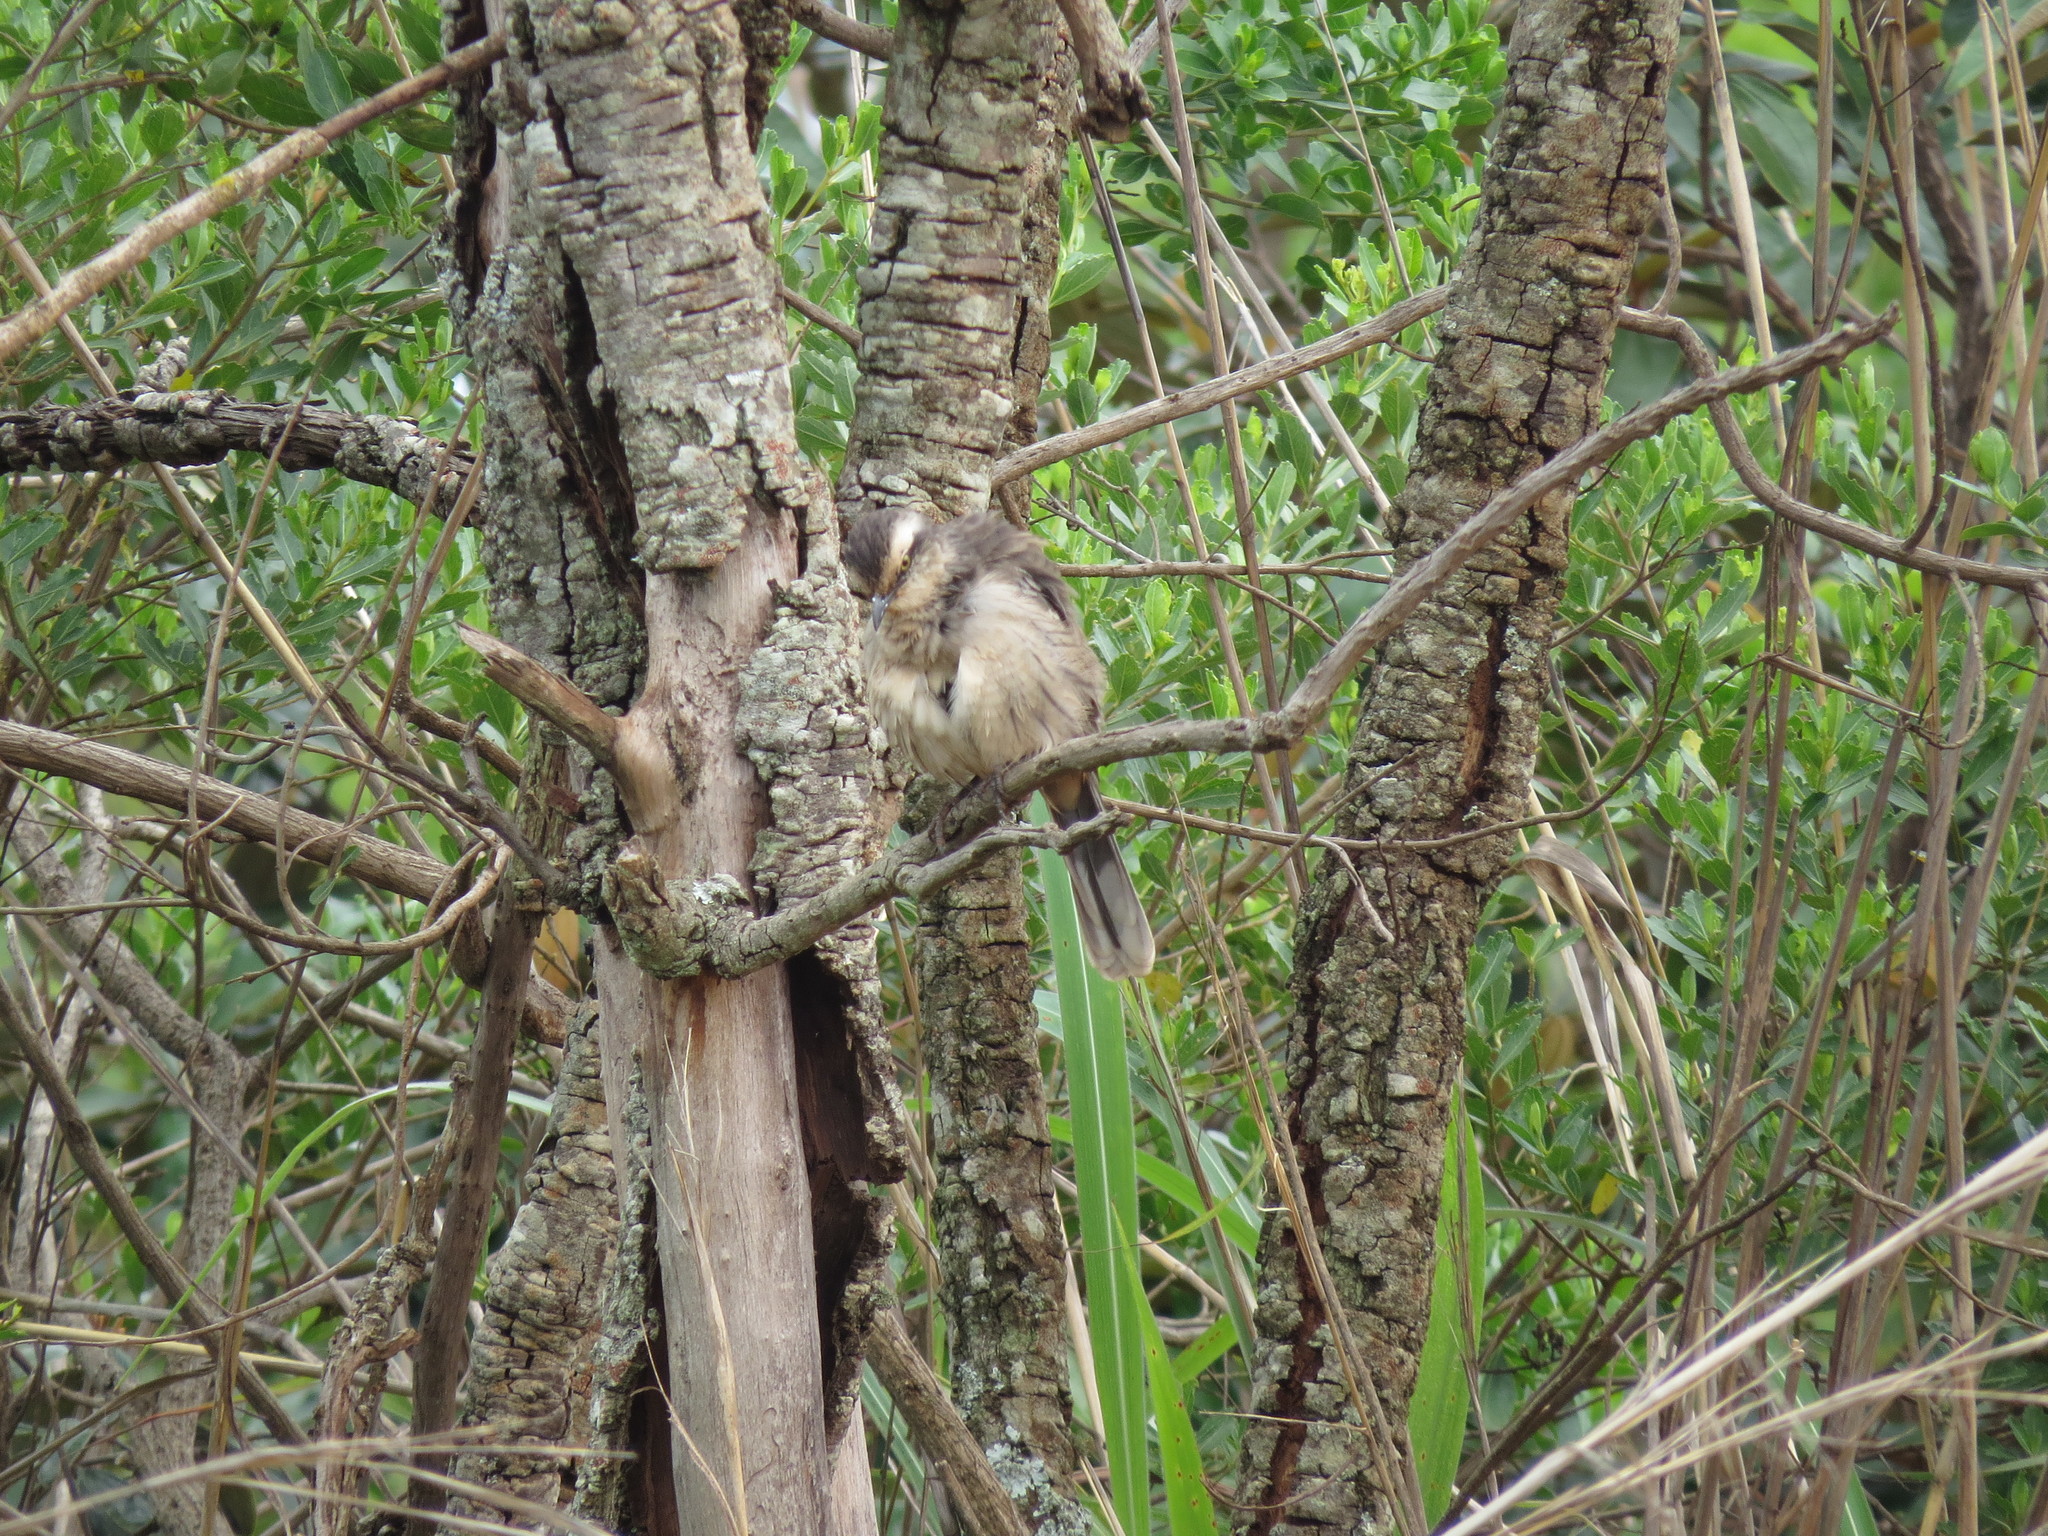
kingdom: Animalia
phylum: Chordata
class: Aves
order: Passeriformes
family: Mimidae
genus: Mimus
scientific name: Mimus saturninus
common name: Chalk-browed mockingbird
